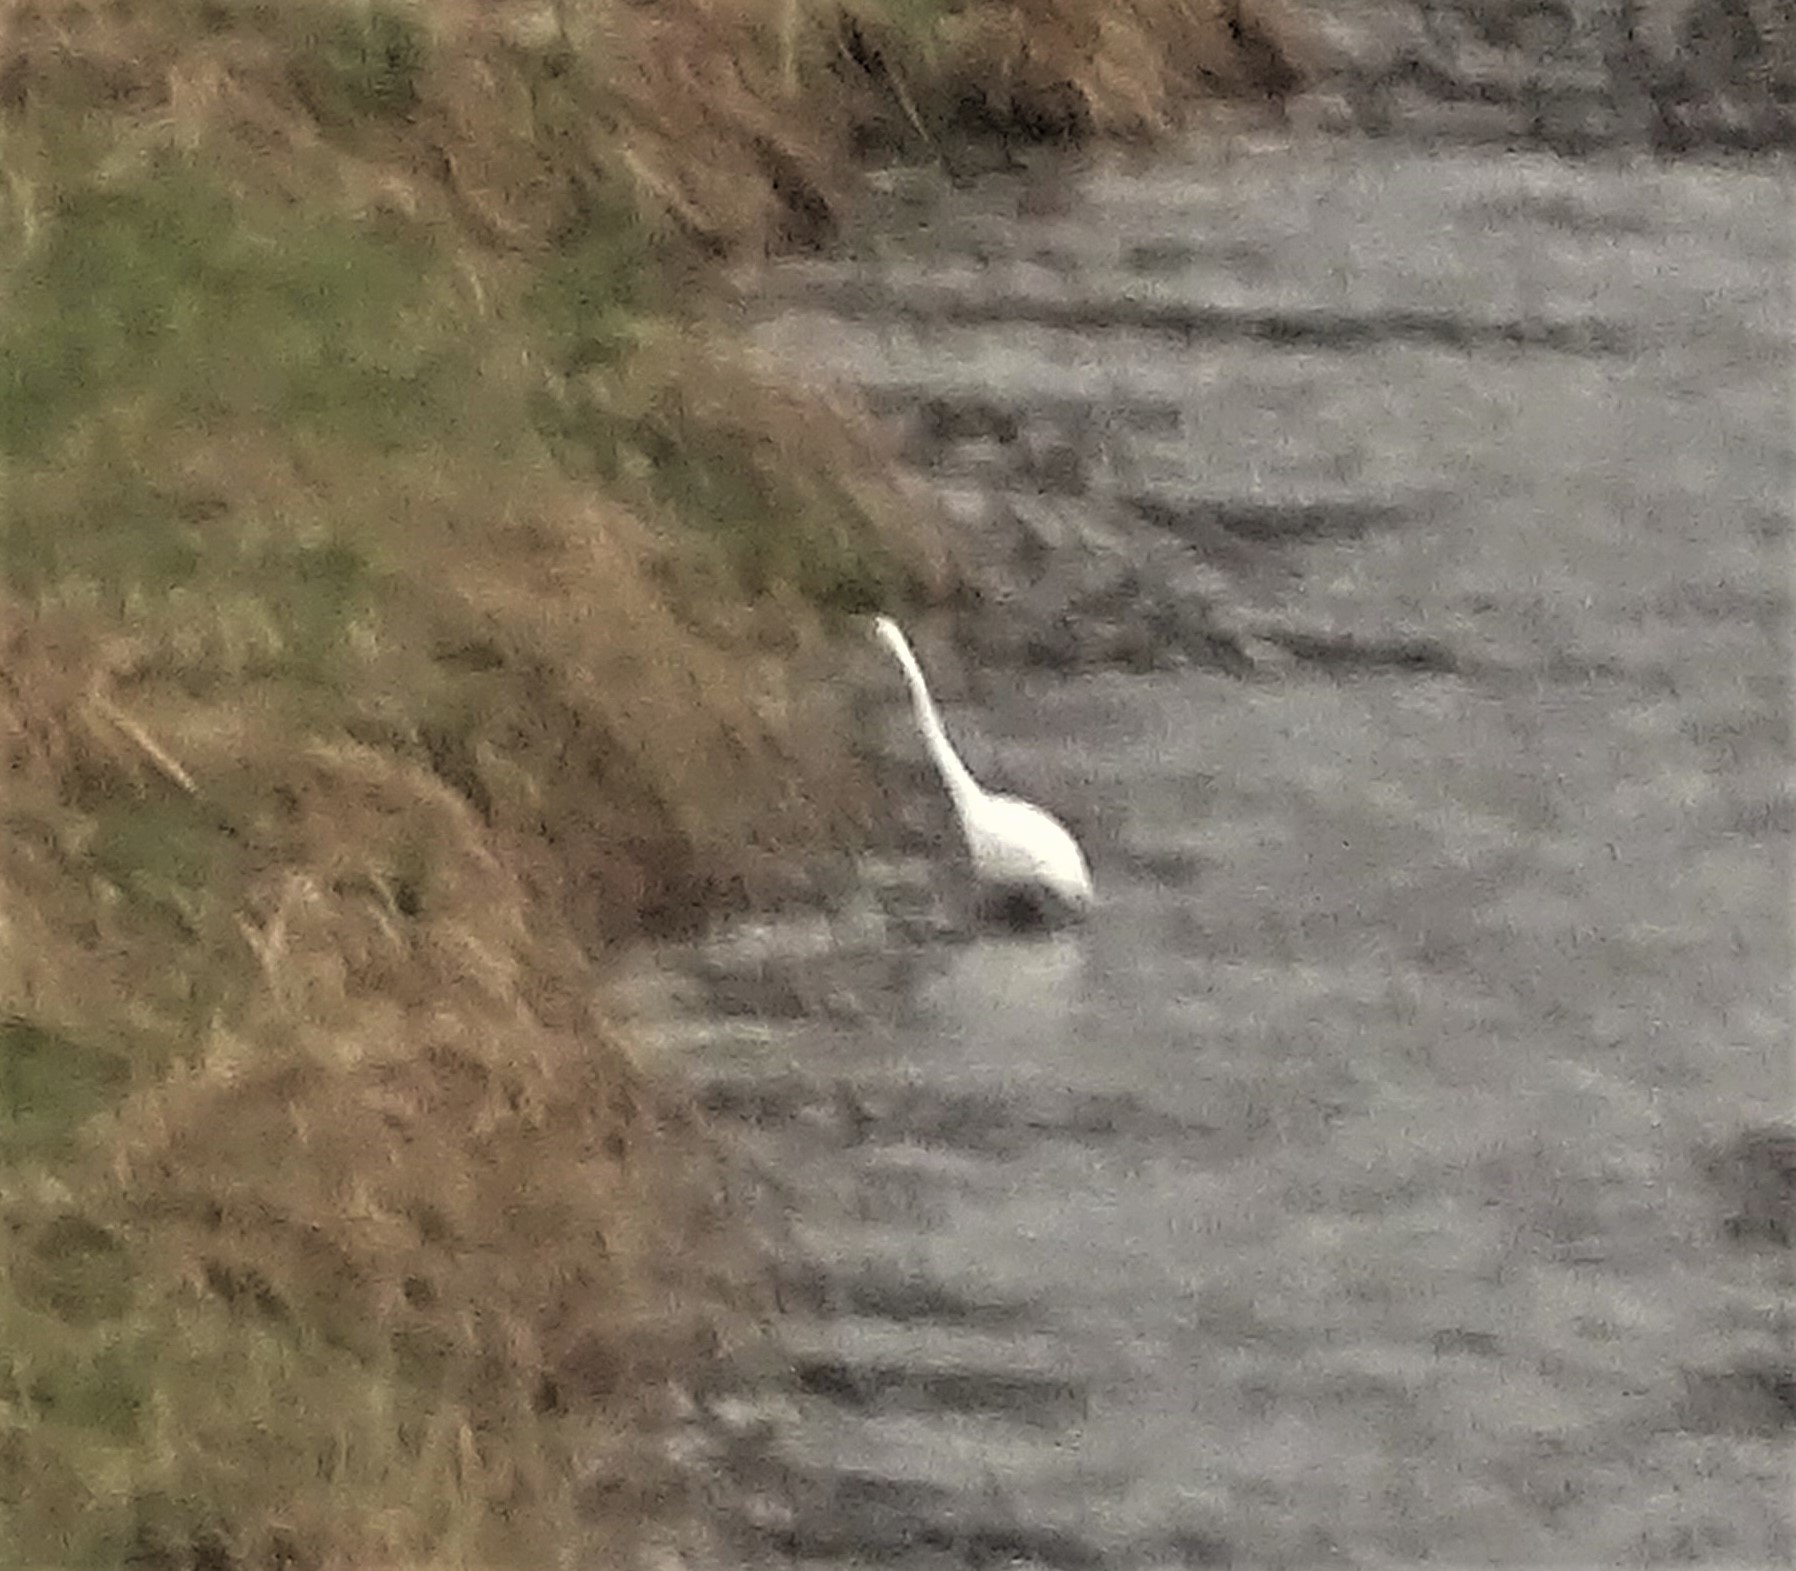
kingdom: Animalia
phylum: Chordata
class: Aves
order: Pelecaniformes
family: Ardeidae
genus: Ardea
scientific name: Ardea alba
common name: Great egret
